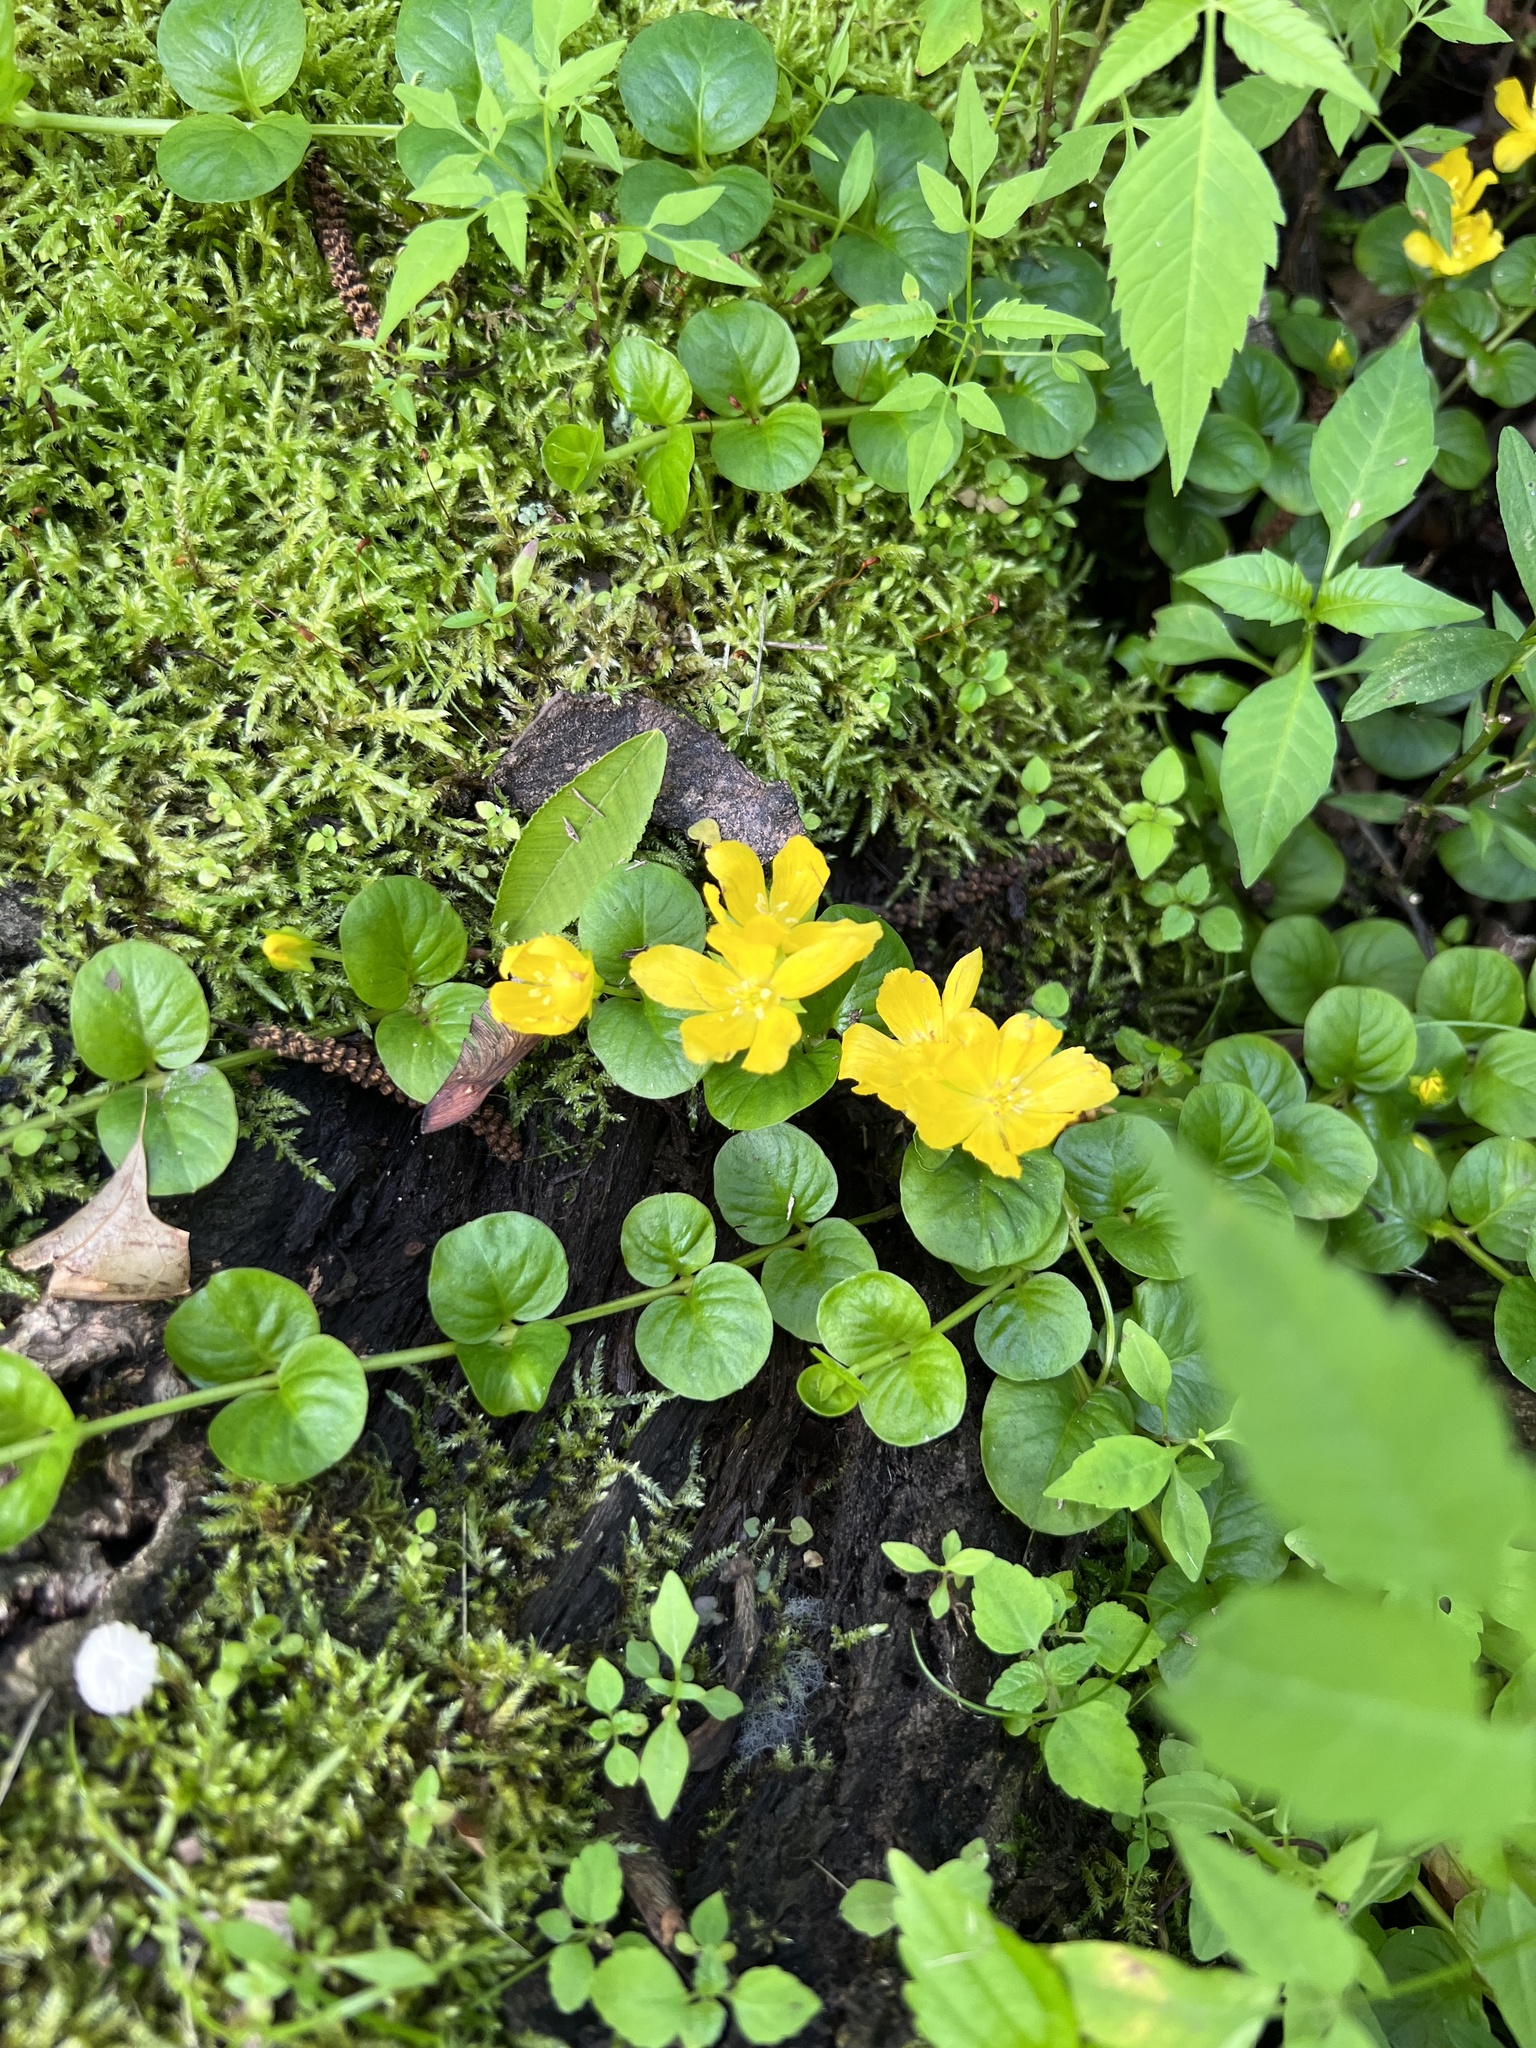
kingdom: Plantae
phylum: Tracheophyta
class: Magnoliopsida
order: Ericales
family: Primulaceae
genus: Lysimachia
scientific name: Lysimachia nummularia
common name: Moneywort
